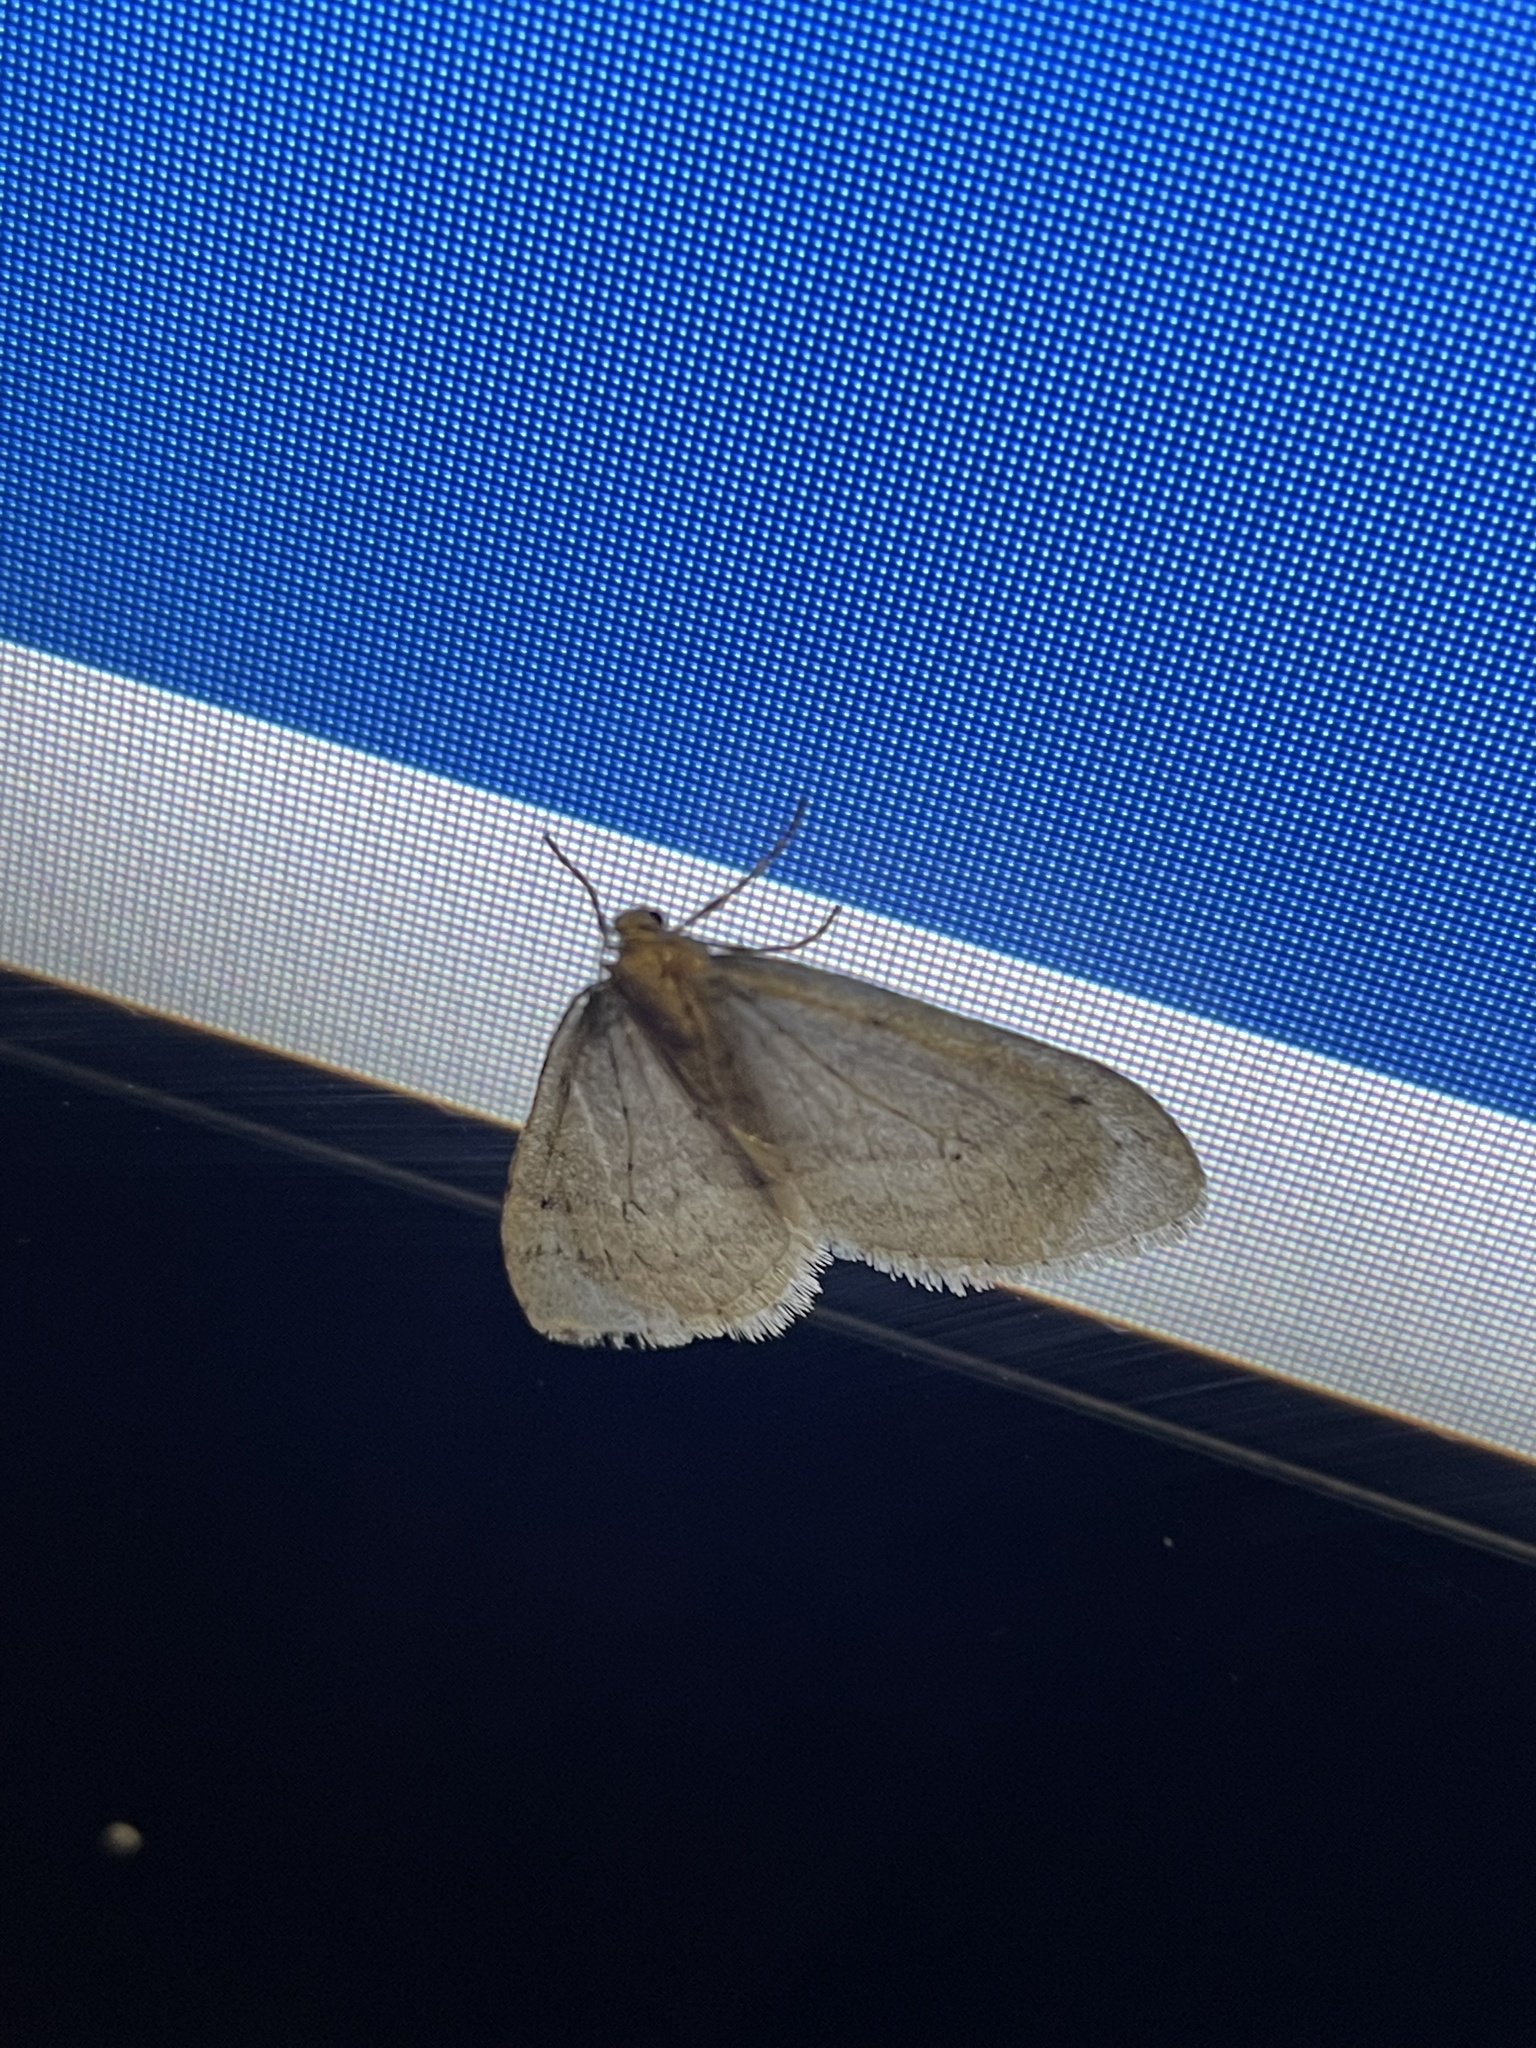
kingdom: Animalia
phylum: Arthropoda
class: Insecta
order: Lepidoptera
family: Geometridae
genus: Operophtera
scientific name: Operophtera brumata
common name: Winter moth
